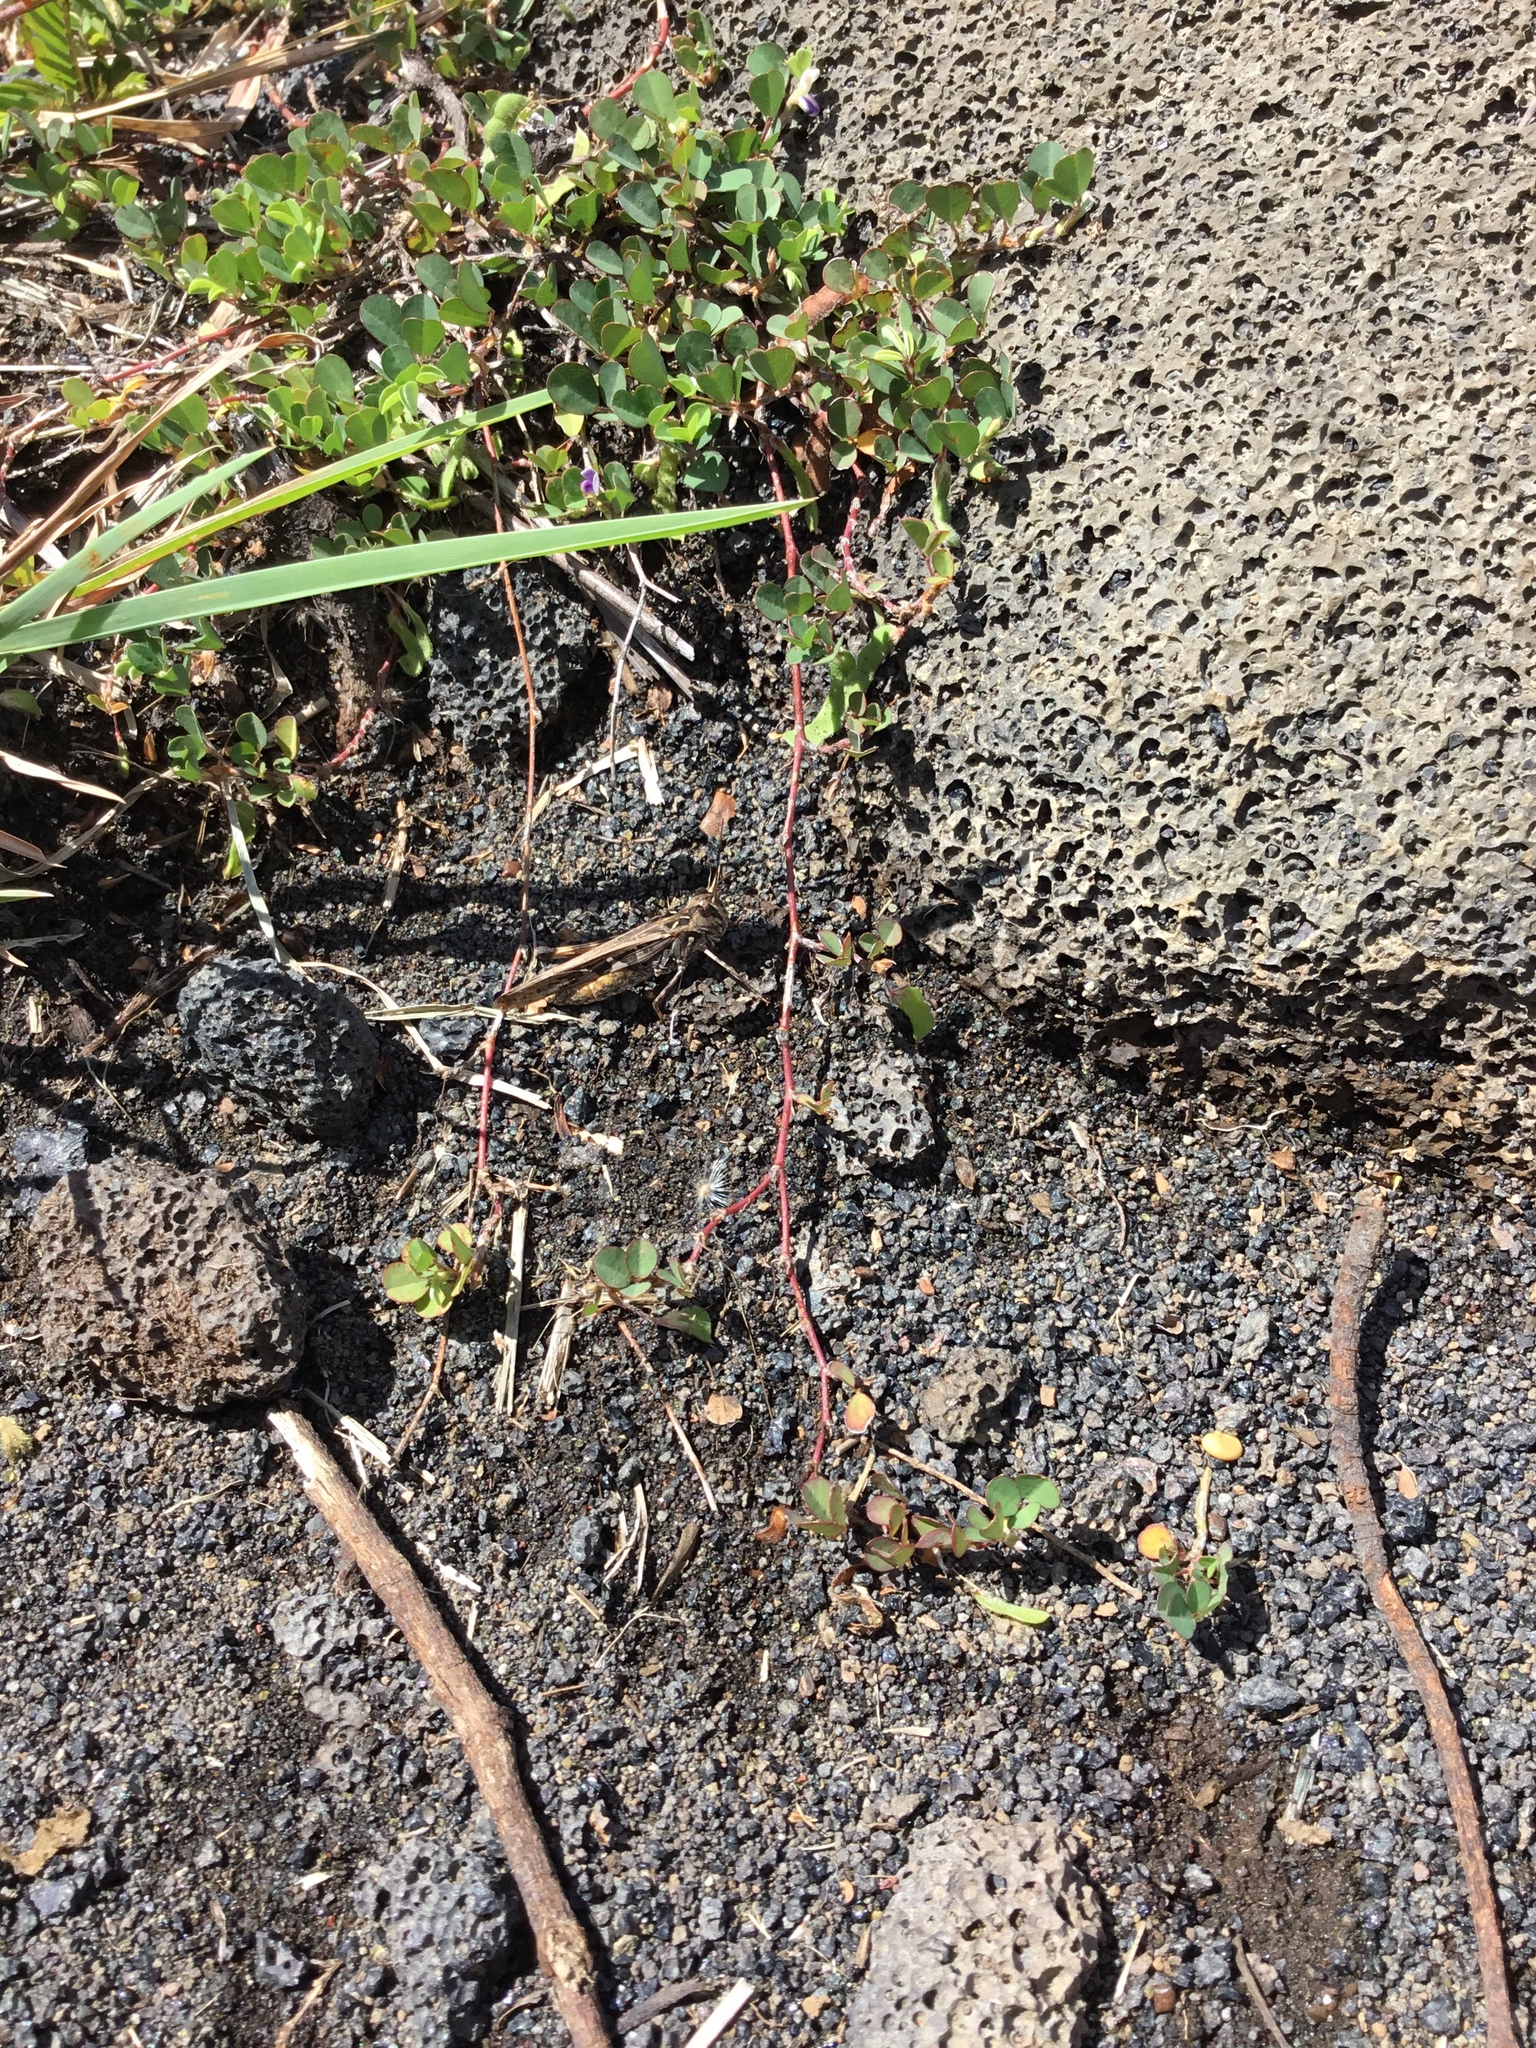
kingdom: Animalia
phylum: Arthropoda
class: Insecta
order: Orthoptera
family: Acrididae
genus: Oedaleus
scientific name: Oedaleus abruptus
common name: Grasshopper
